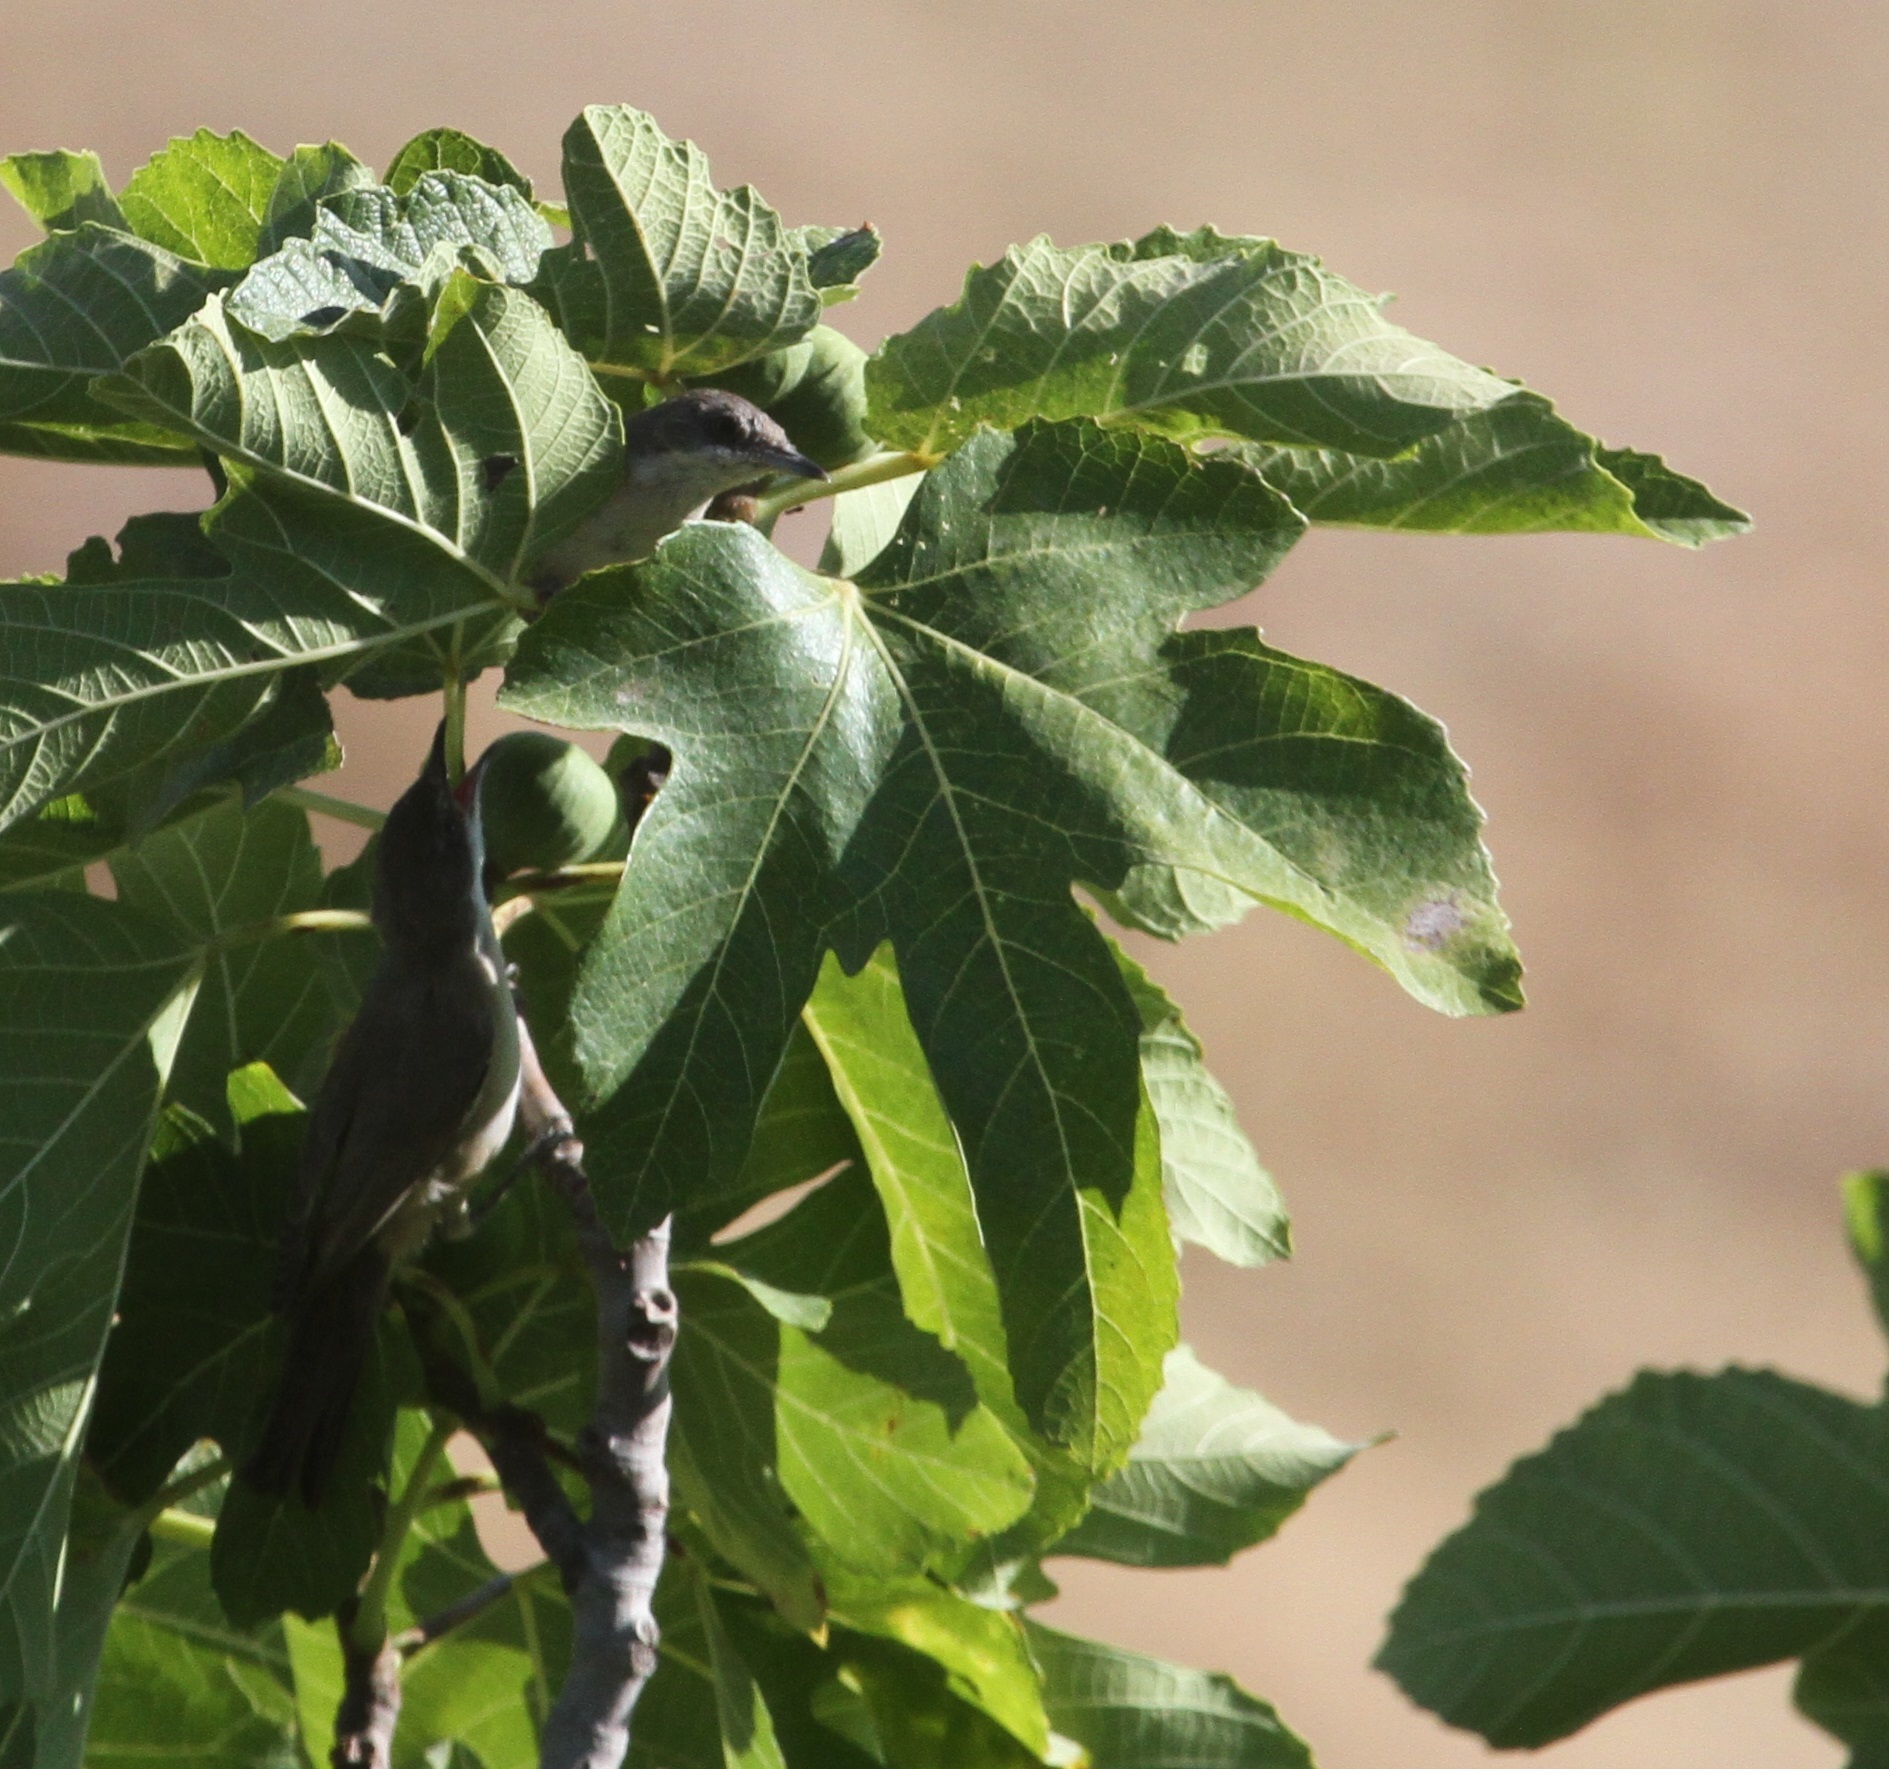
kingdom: Animalia
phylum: Chordata
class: Aves
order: Passeriformes
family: Sylviidae
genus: Sylvia
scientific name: Sylvia hortensis
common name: Orphean warbler
